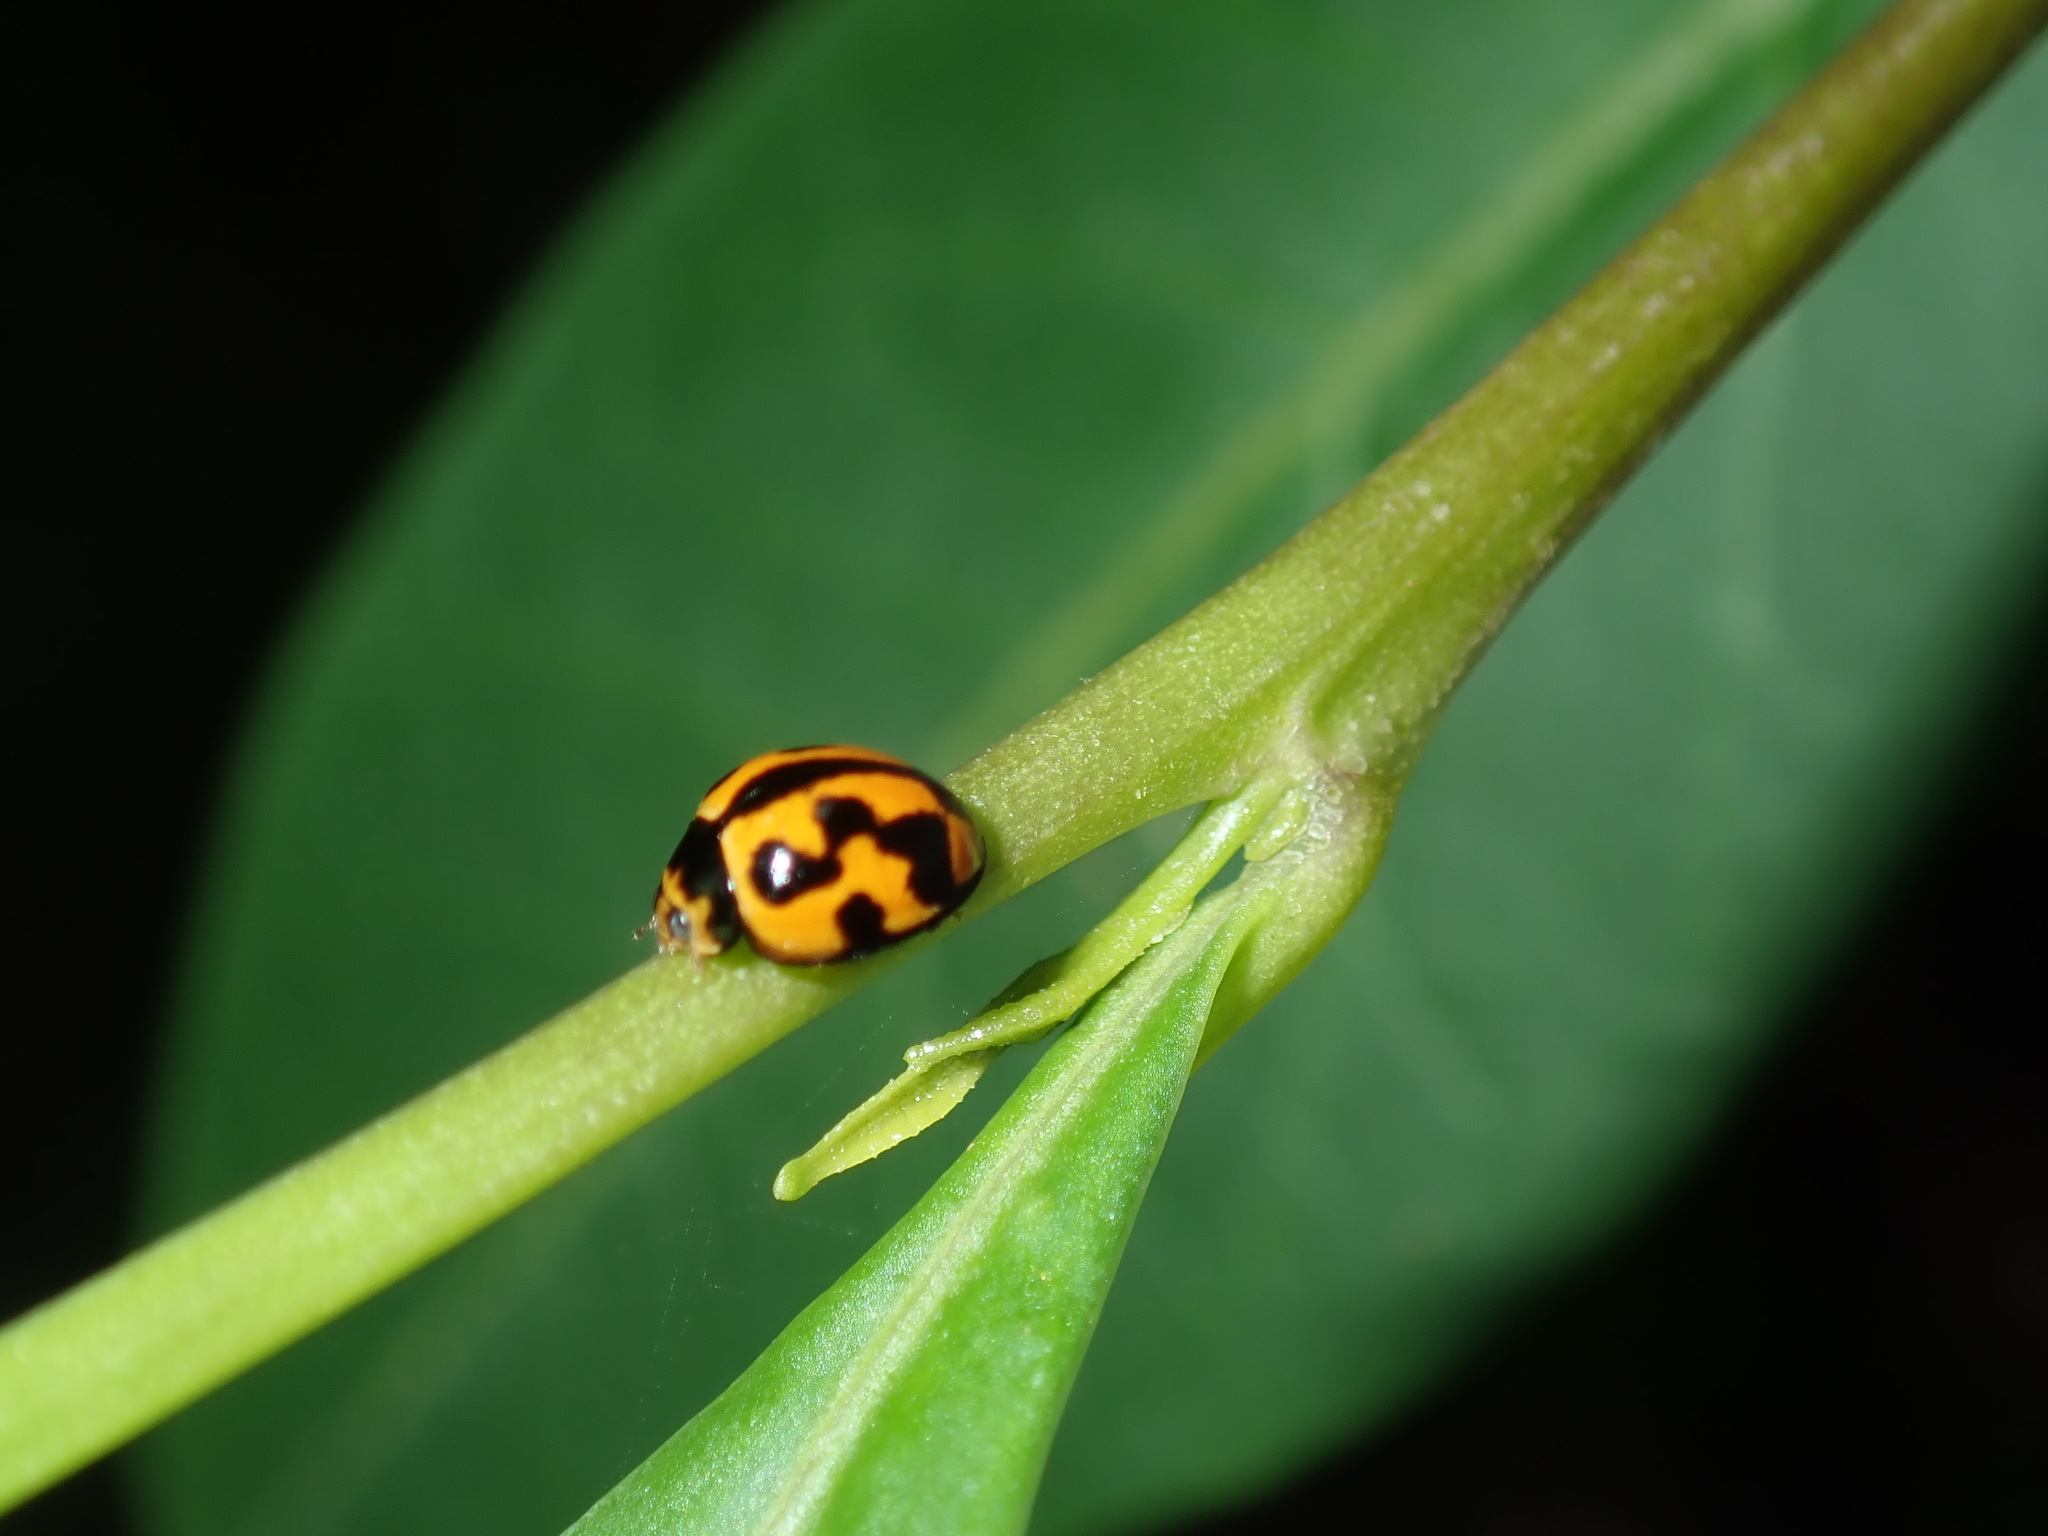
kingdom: Animalia
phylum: Arthropoda
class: Insecta
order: Coleoptera
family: Coccinellidae
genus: Coelophora
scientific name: Coelophora inaequalis
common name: Common australian lady beetle
